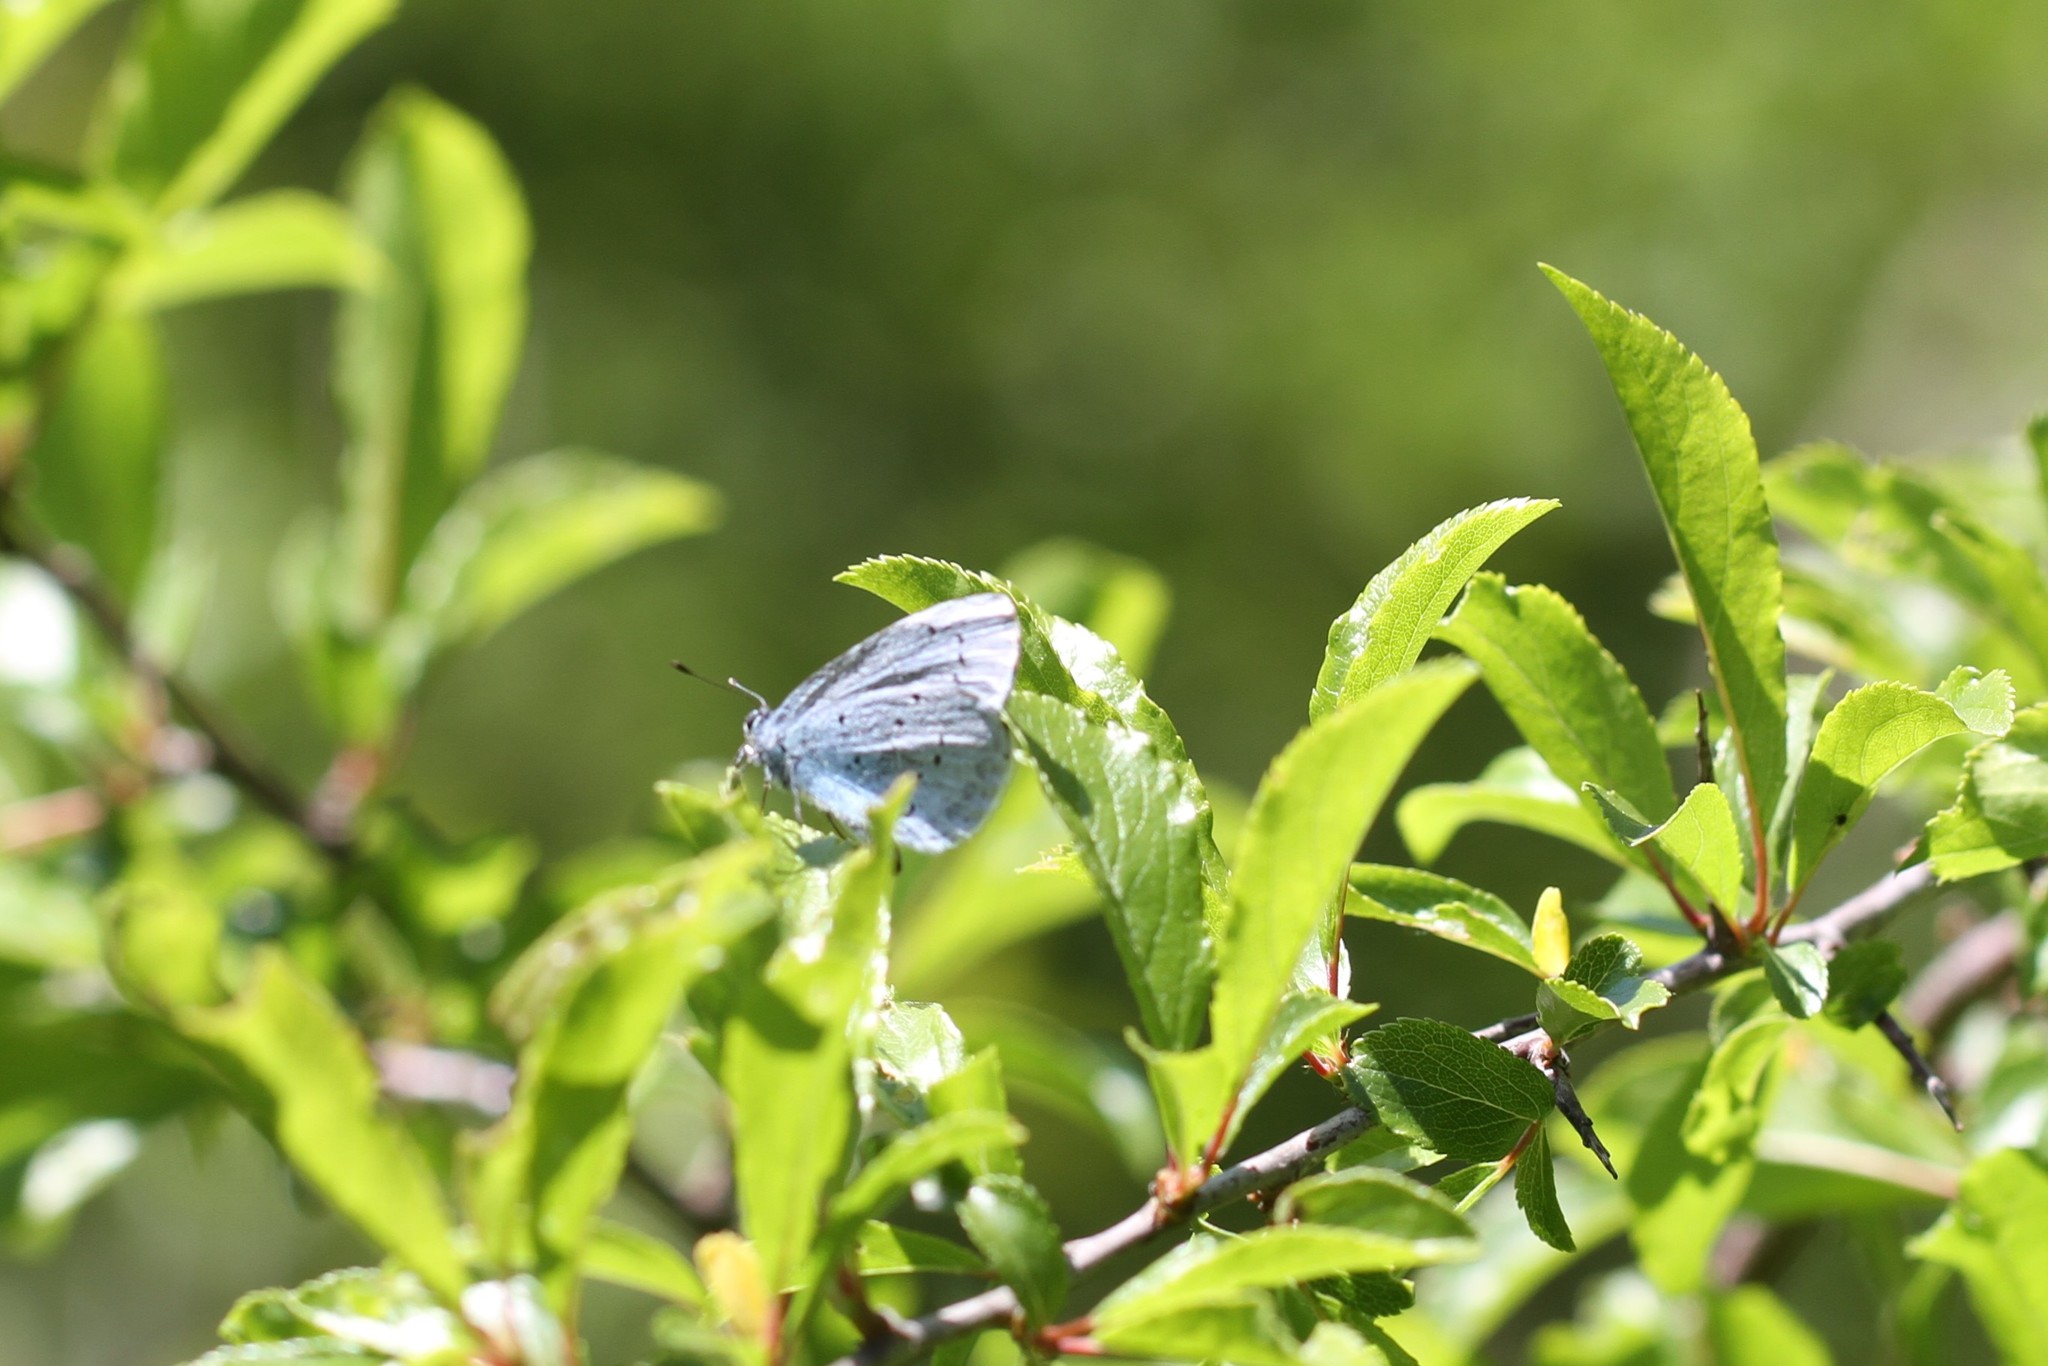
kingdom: Animalia
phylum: Arthropoda
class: Insecta
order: Lepidoptera
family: Lycaenidae
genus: Celastrina
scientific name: Celastrina argiolus
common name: Holly blue
